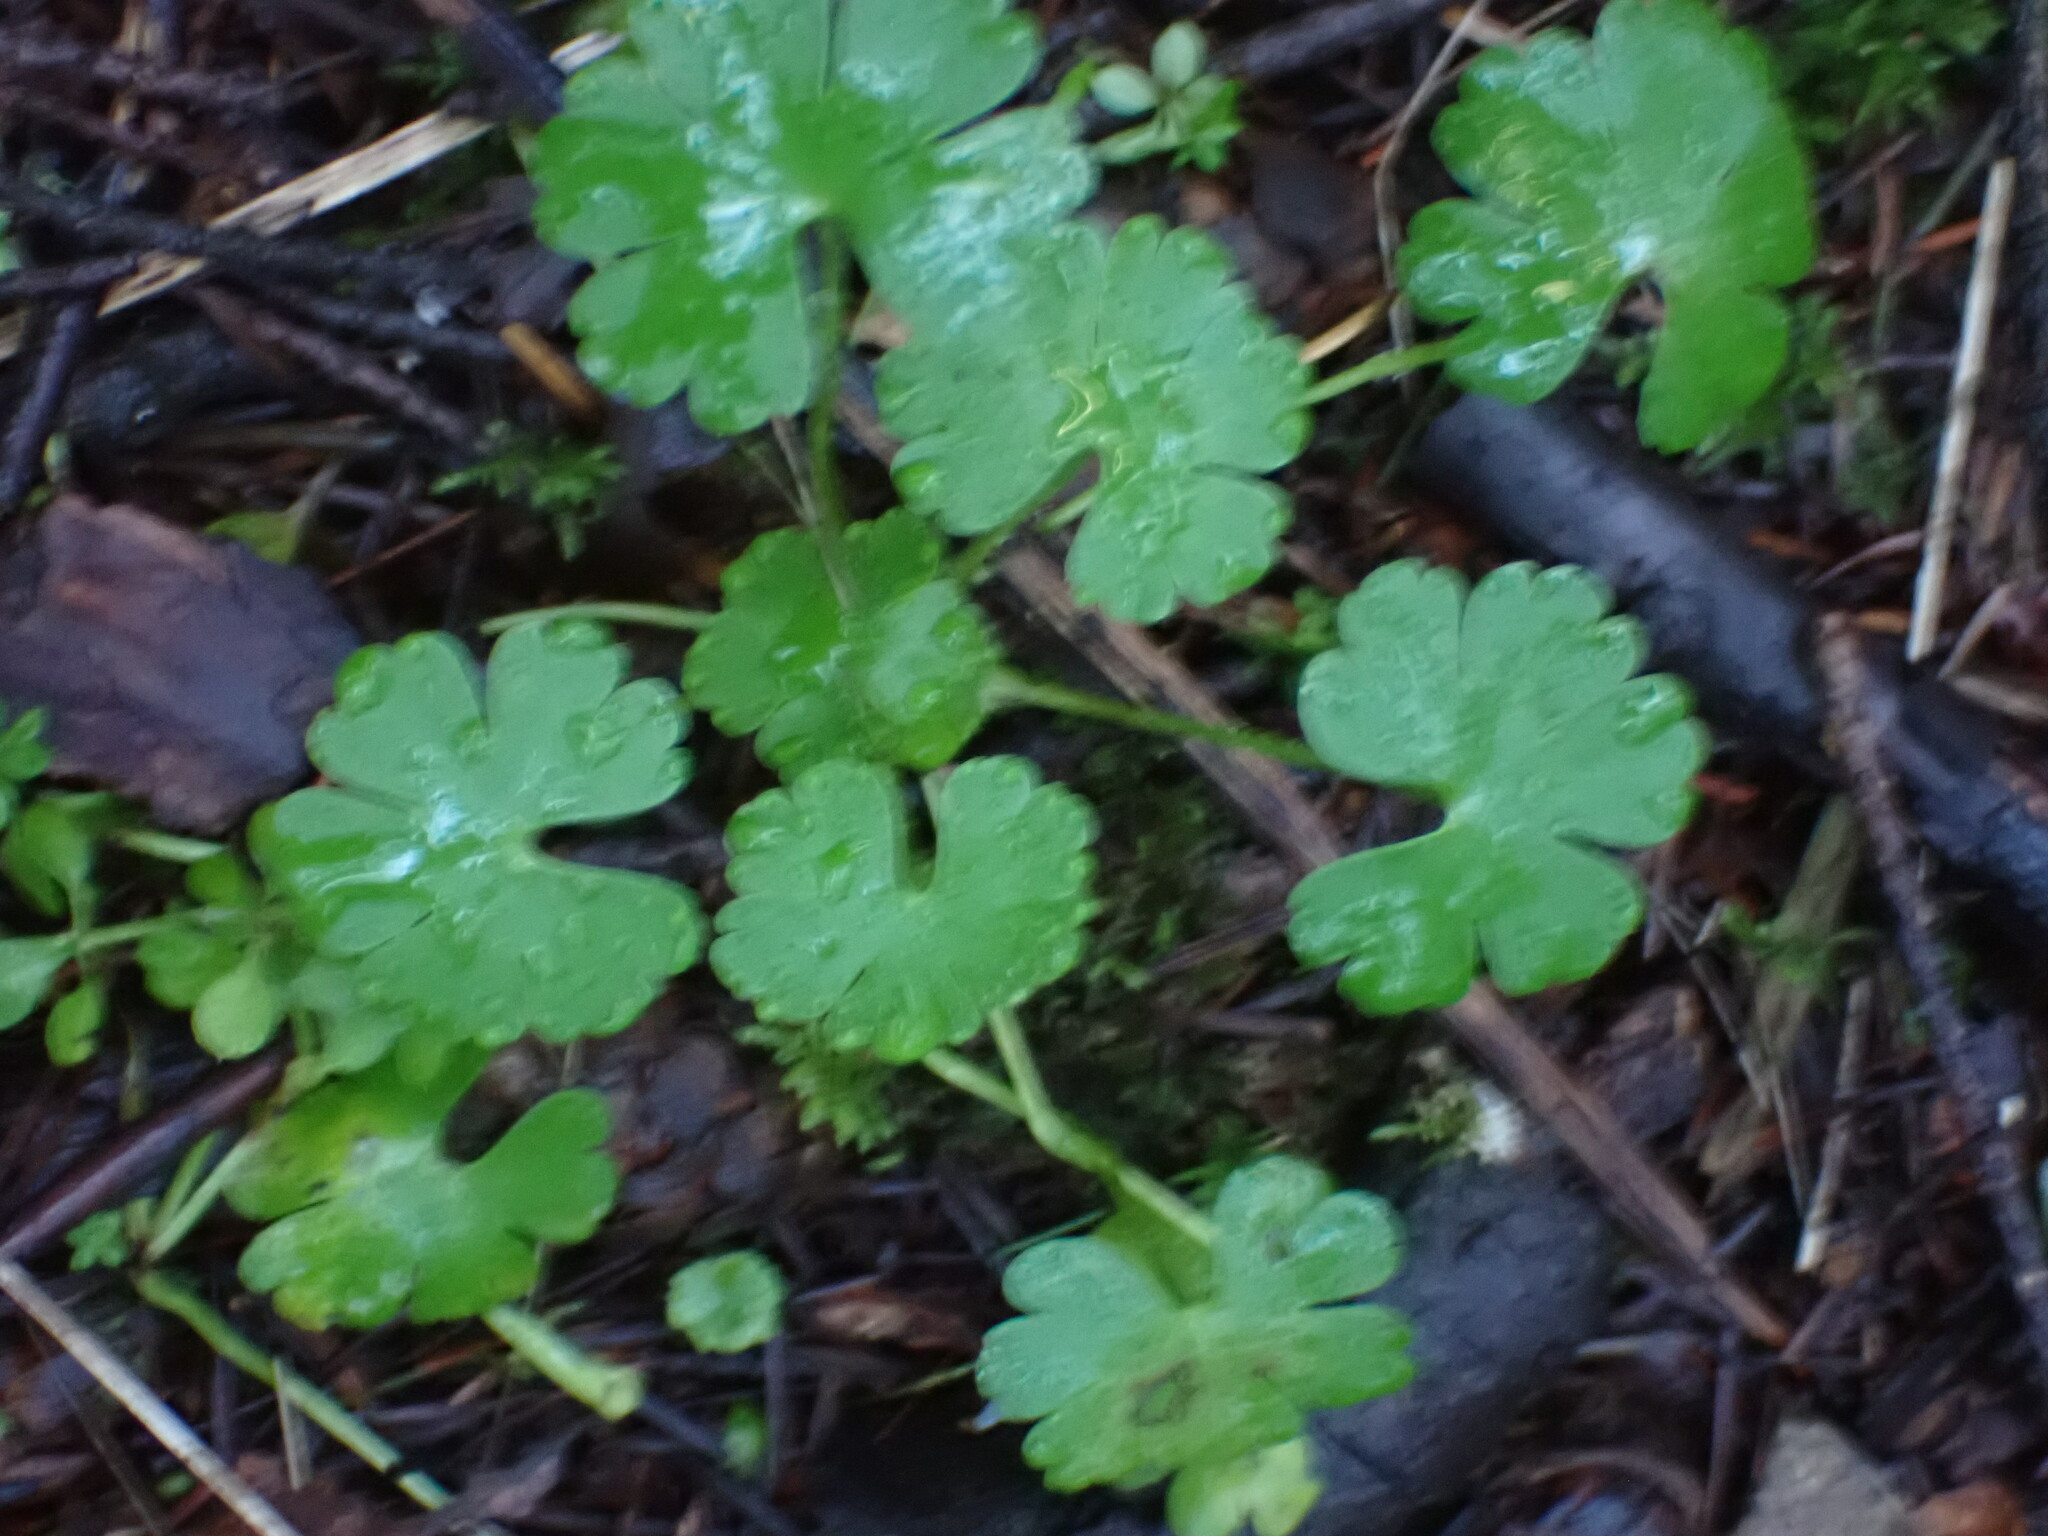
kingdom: Plantae
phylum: Tracheophyta
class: Magnoliopsida
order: Geraniales
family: Geraniaceae
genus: Geranium
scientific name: Geranium lucidum
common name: Shining crane's-bill
